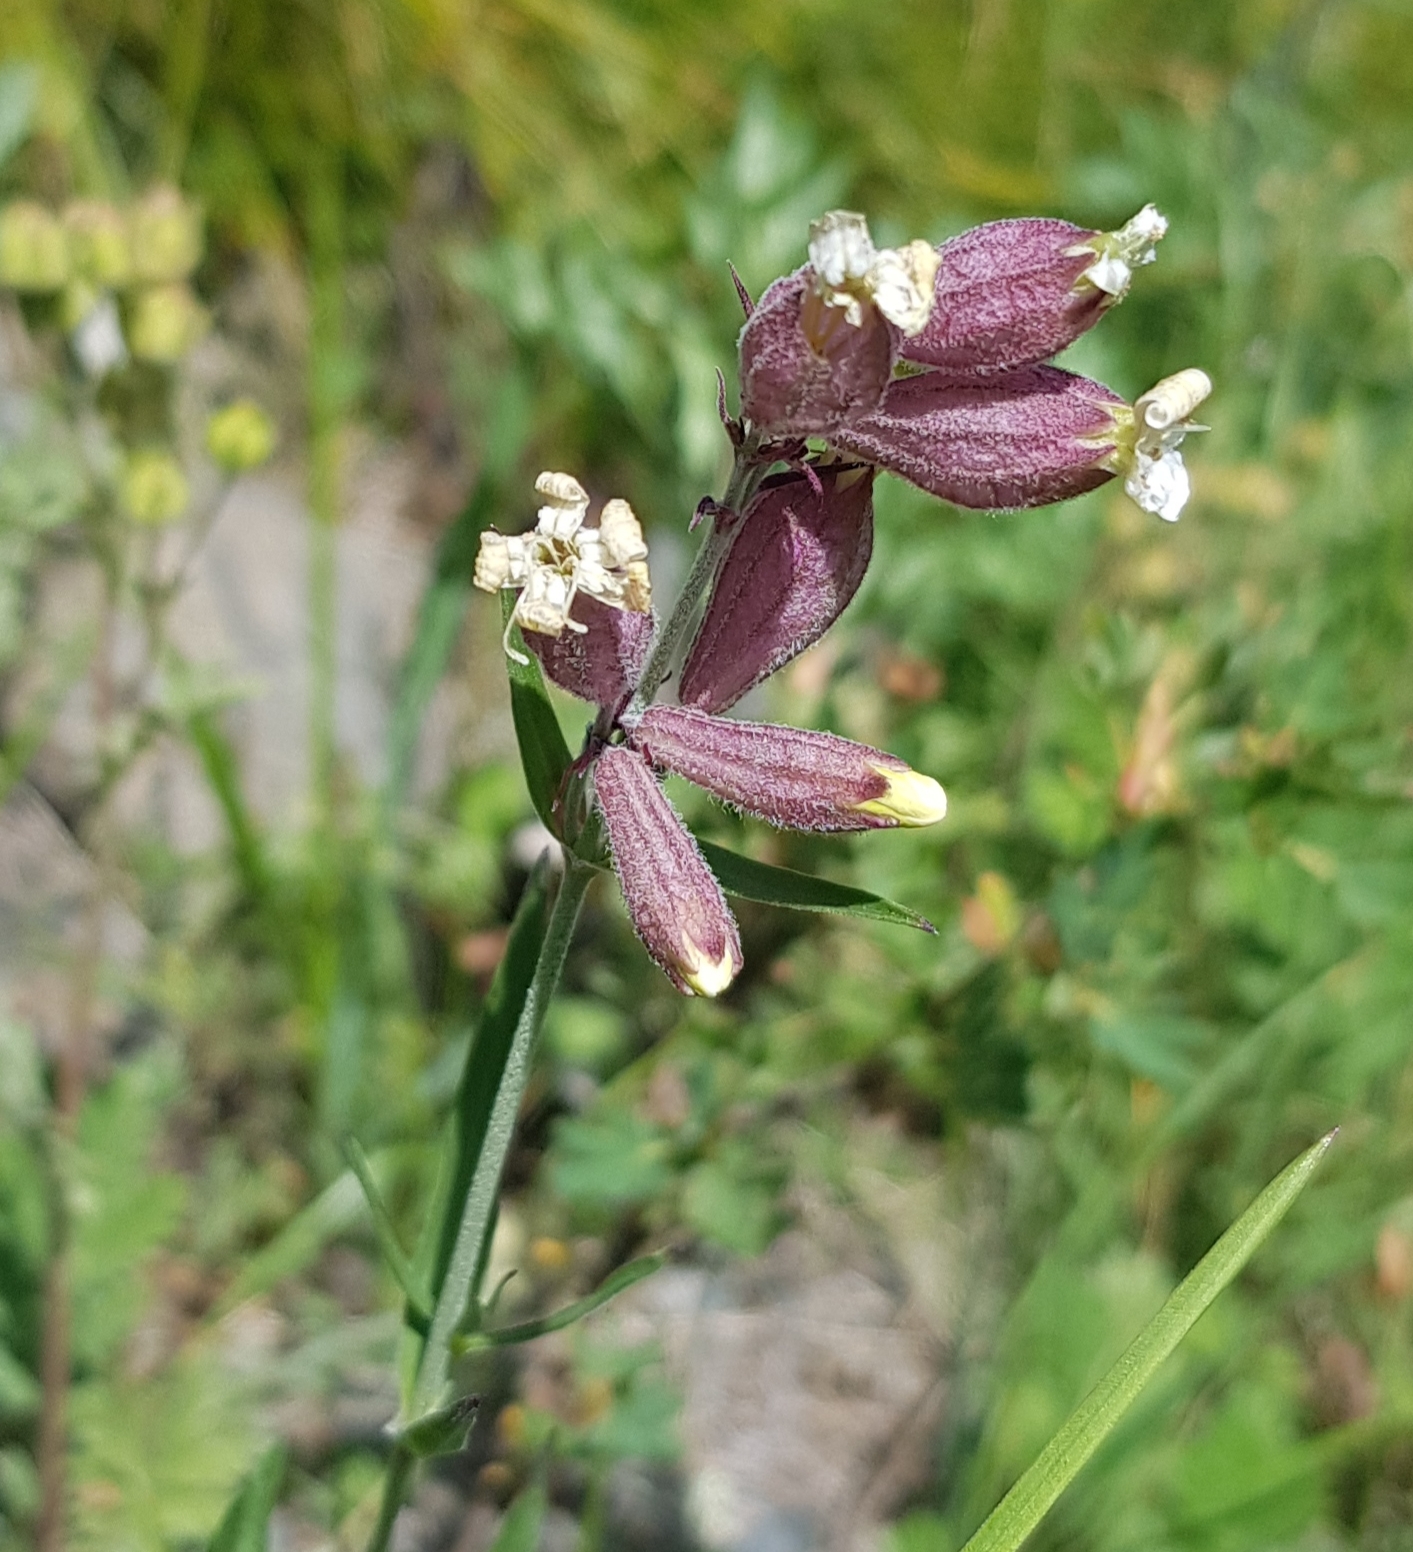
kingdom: Plantae
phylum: Tracheophyta
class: Magnoliopsida
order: Caryophyllales
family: Caryophyllaceae
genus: Silene
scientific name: Silene repens
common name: Pink campion
